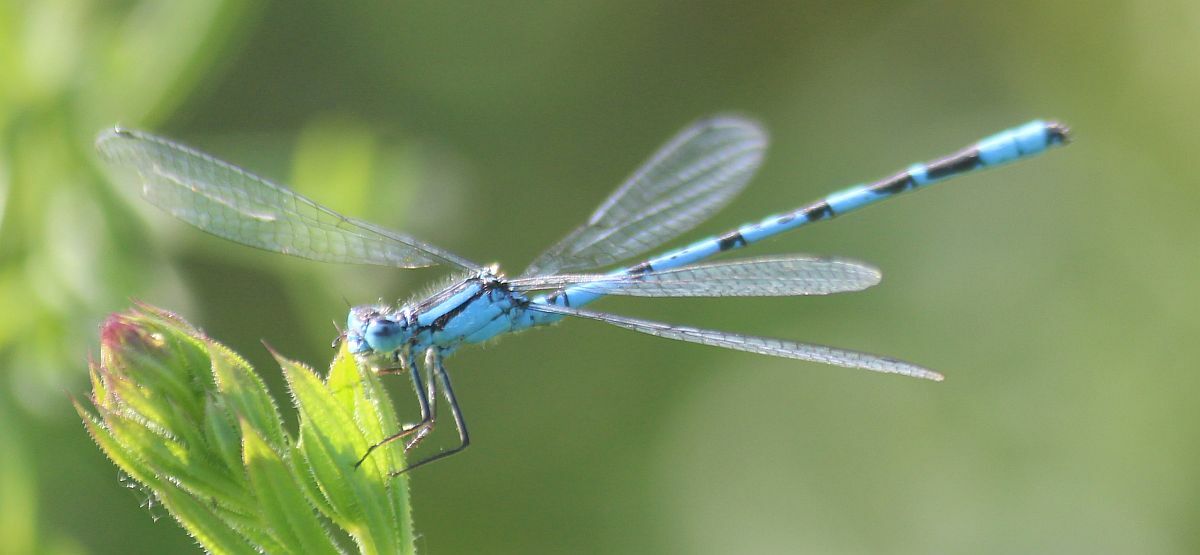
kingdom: Animalia
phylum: Arthropoda
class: Insecta
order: Odonata
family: Coenagrionidae
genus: Enallagma
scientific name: Enallagma cyathigerum
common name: Common blue damselfly
